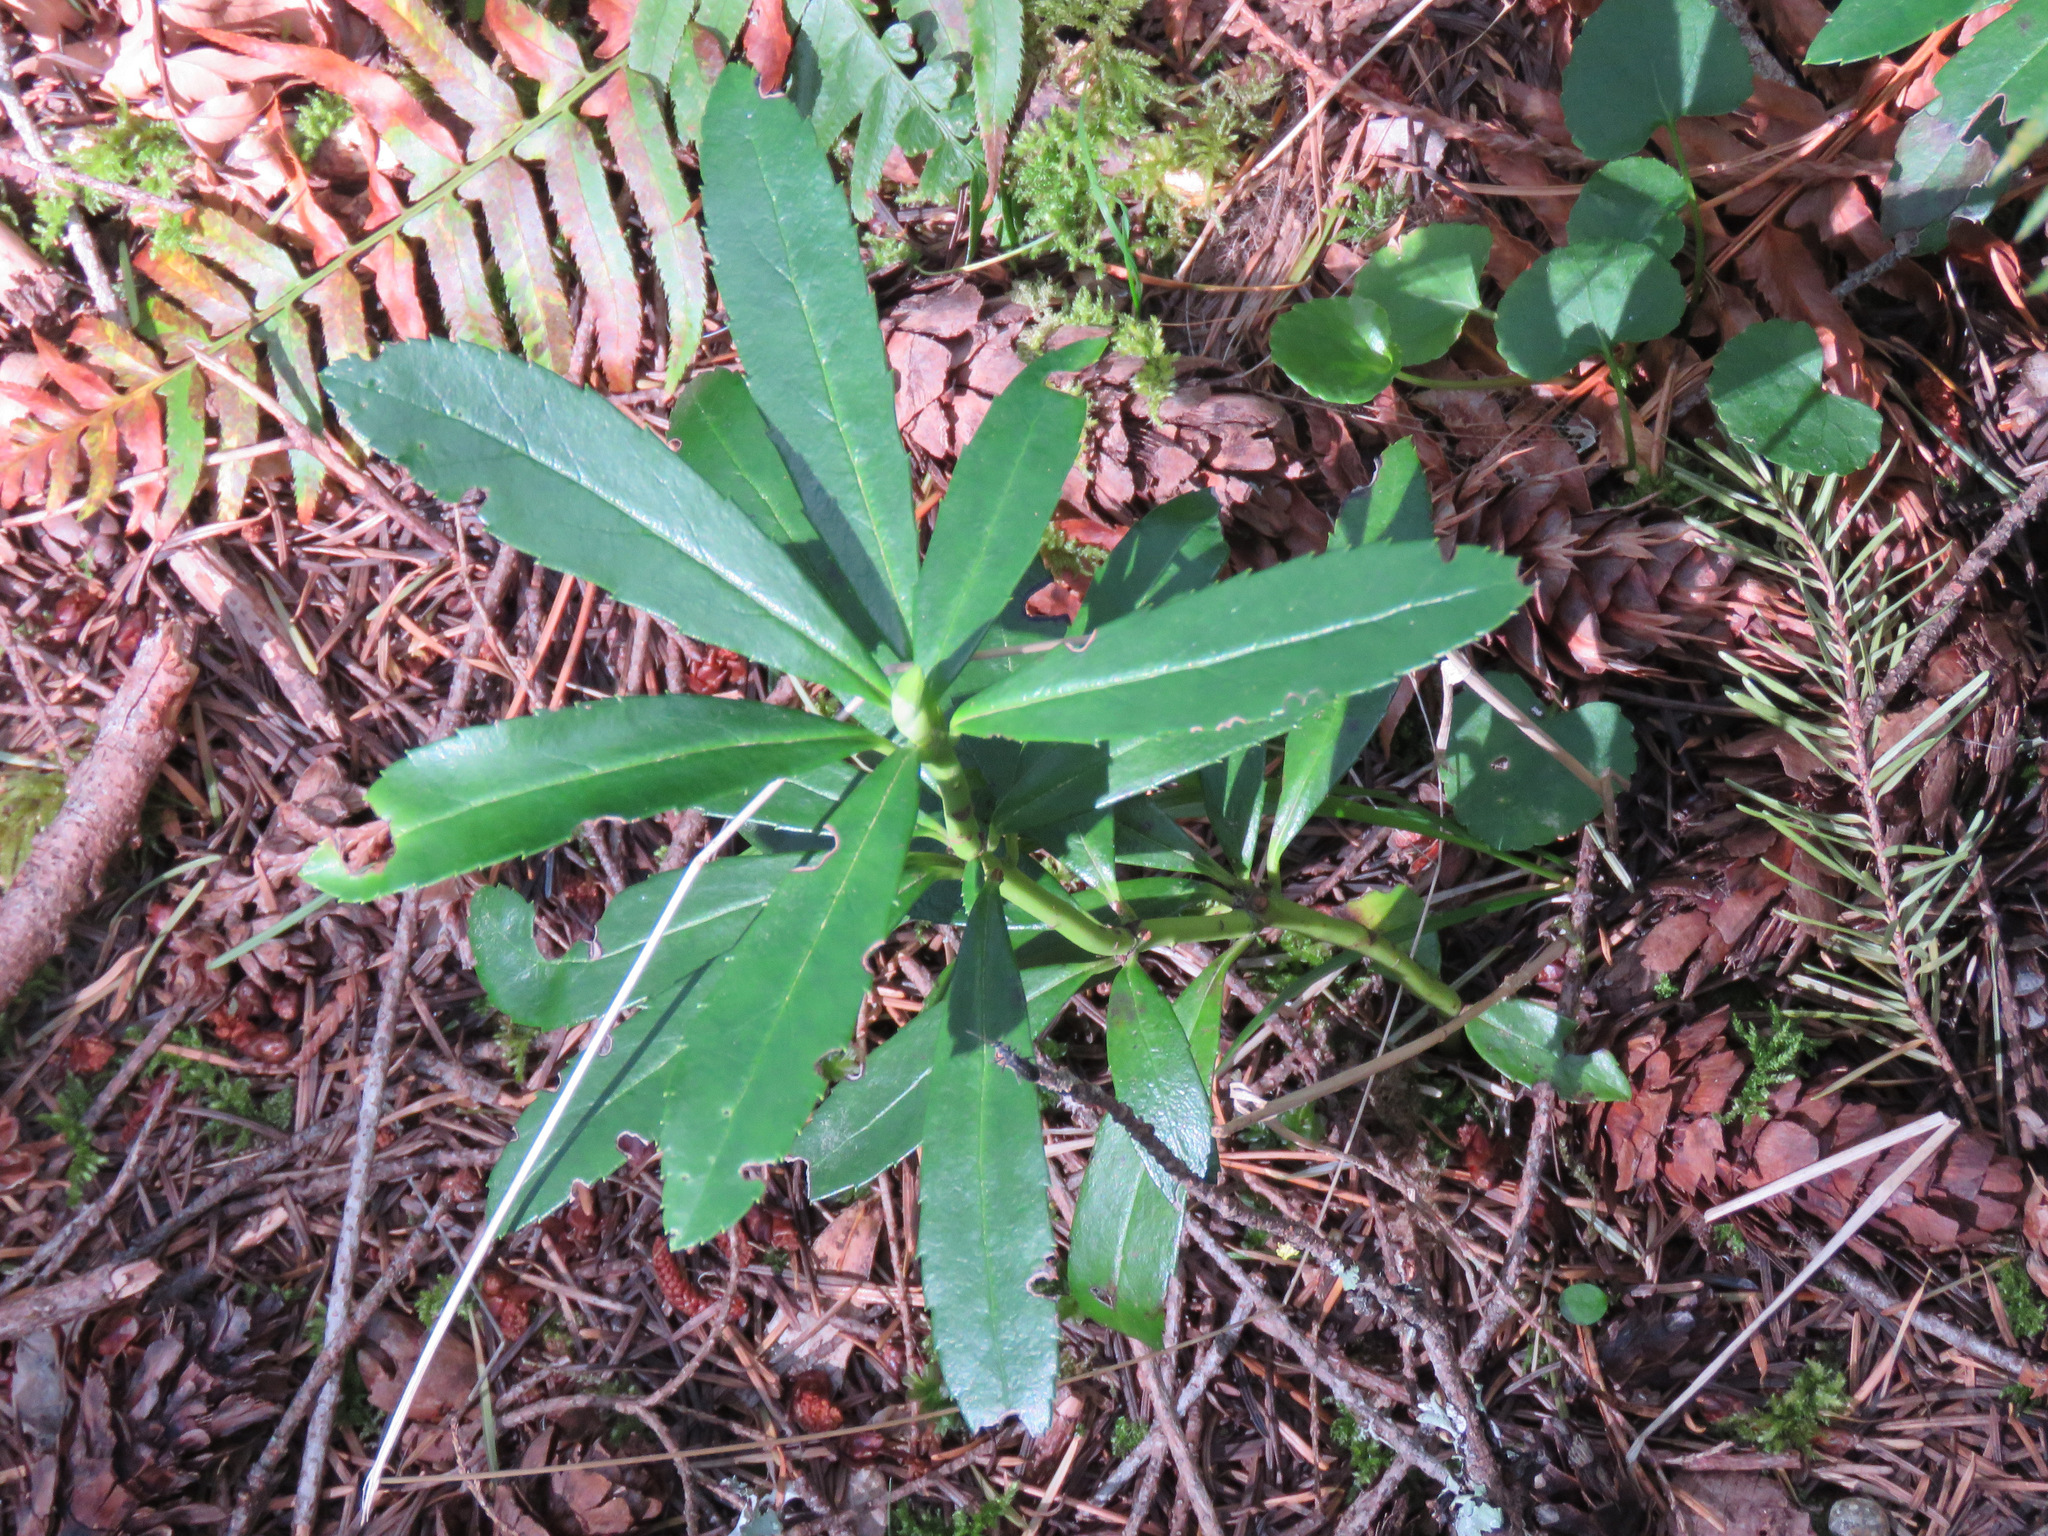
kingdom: Plantae
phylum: Tracheophyta
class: Magnoliopsida
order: Ericales
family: Ericaceae
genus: Chimaphila
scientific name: Chimaphila umbellata
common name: Pipsissewa
